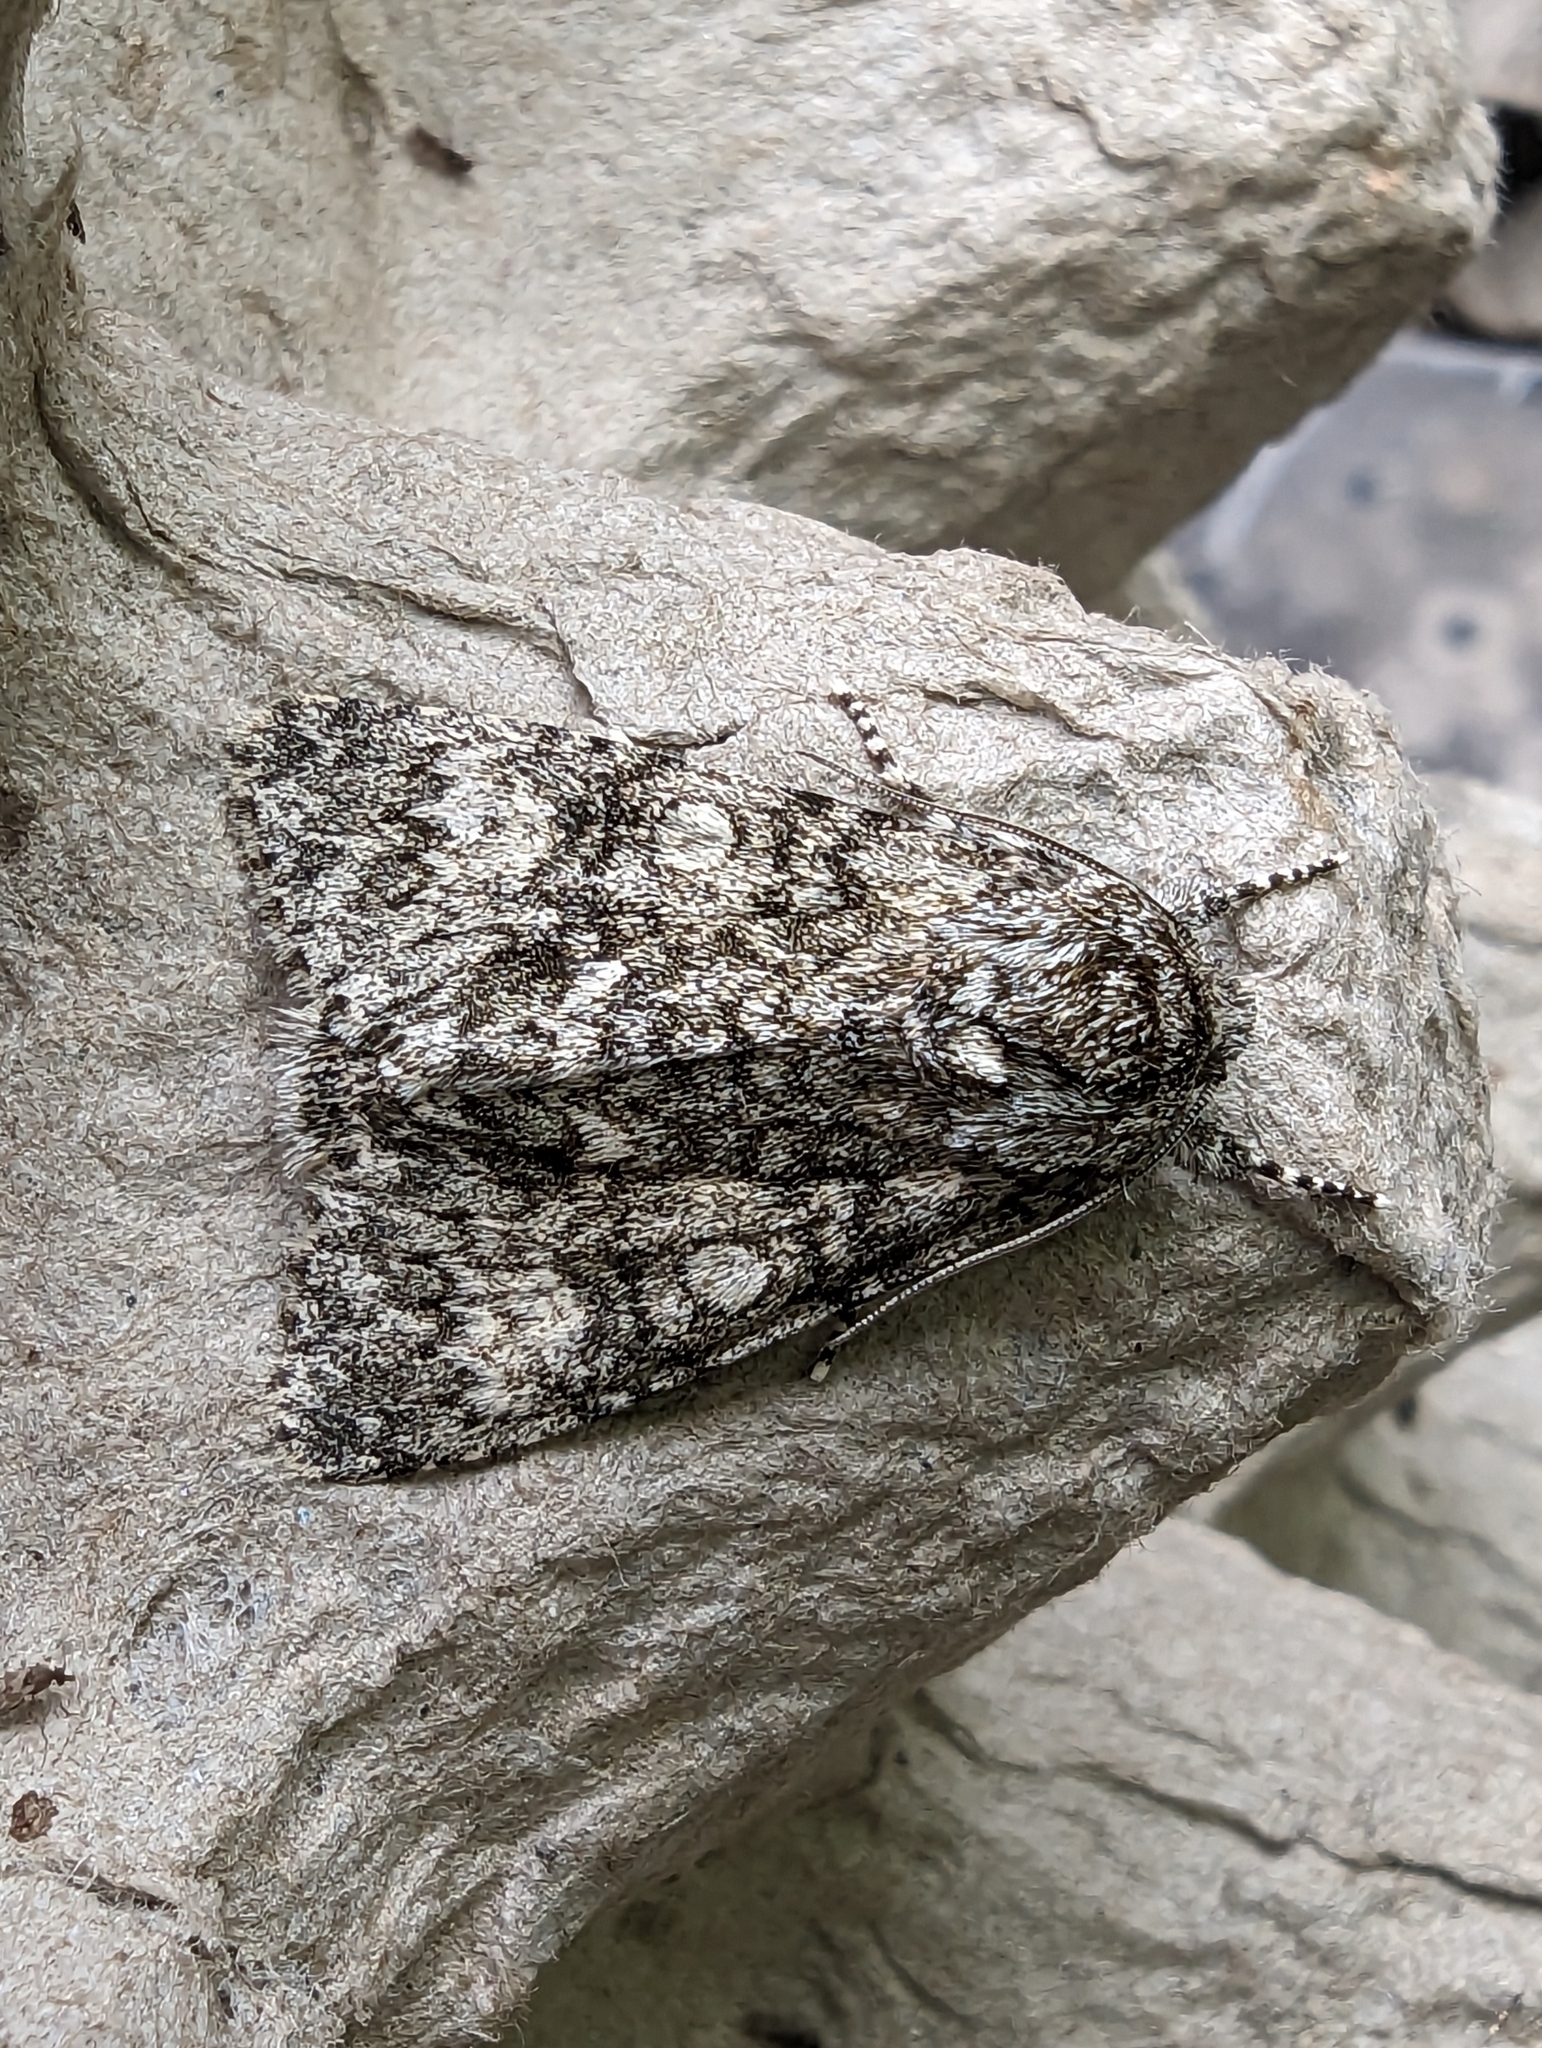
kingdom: Animalia
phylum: Arthropoda
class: Insecta
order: Lepidoptera
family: Noctuidae
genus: Acronicta
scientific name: Acronicta megacephala
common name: Poplar grey
